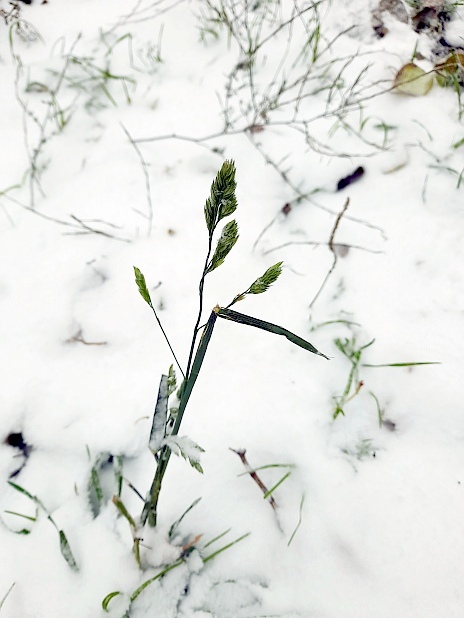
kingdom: Plantae
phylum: Tracheophyta
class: Liliopsida
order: Poales
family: Poaceae
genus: Dactylis
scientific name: Dactylis glomerata
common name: Orchardgrass
